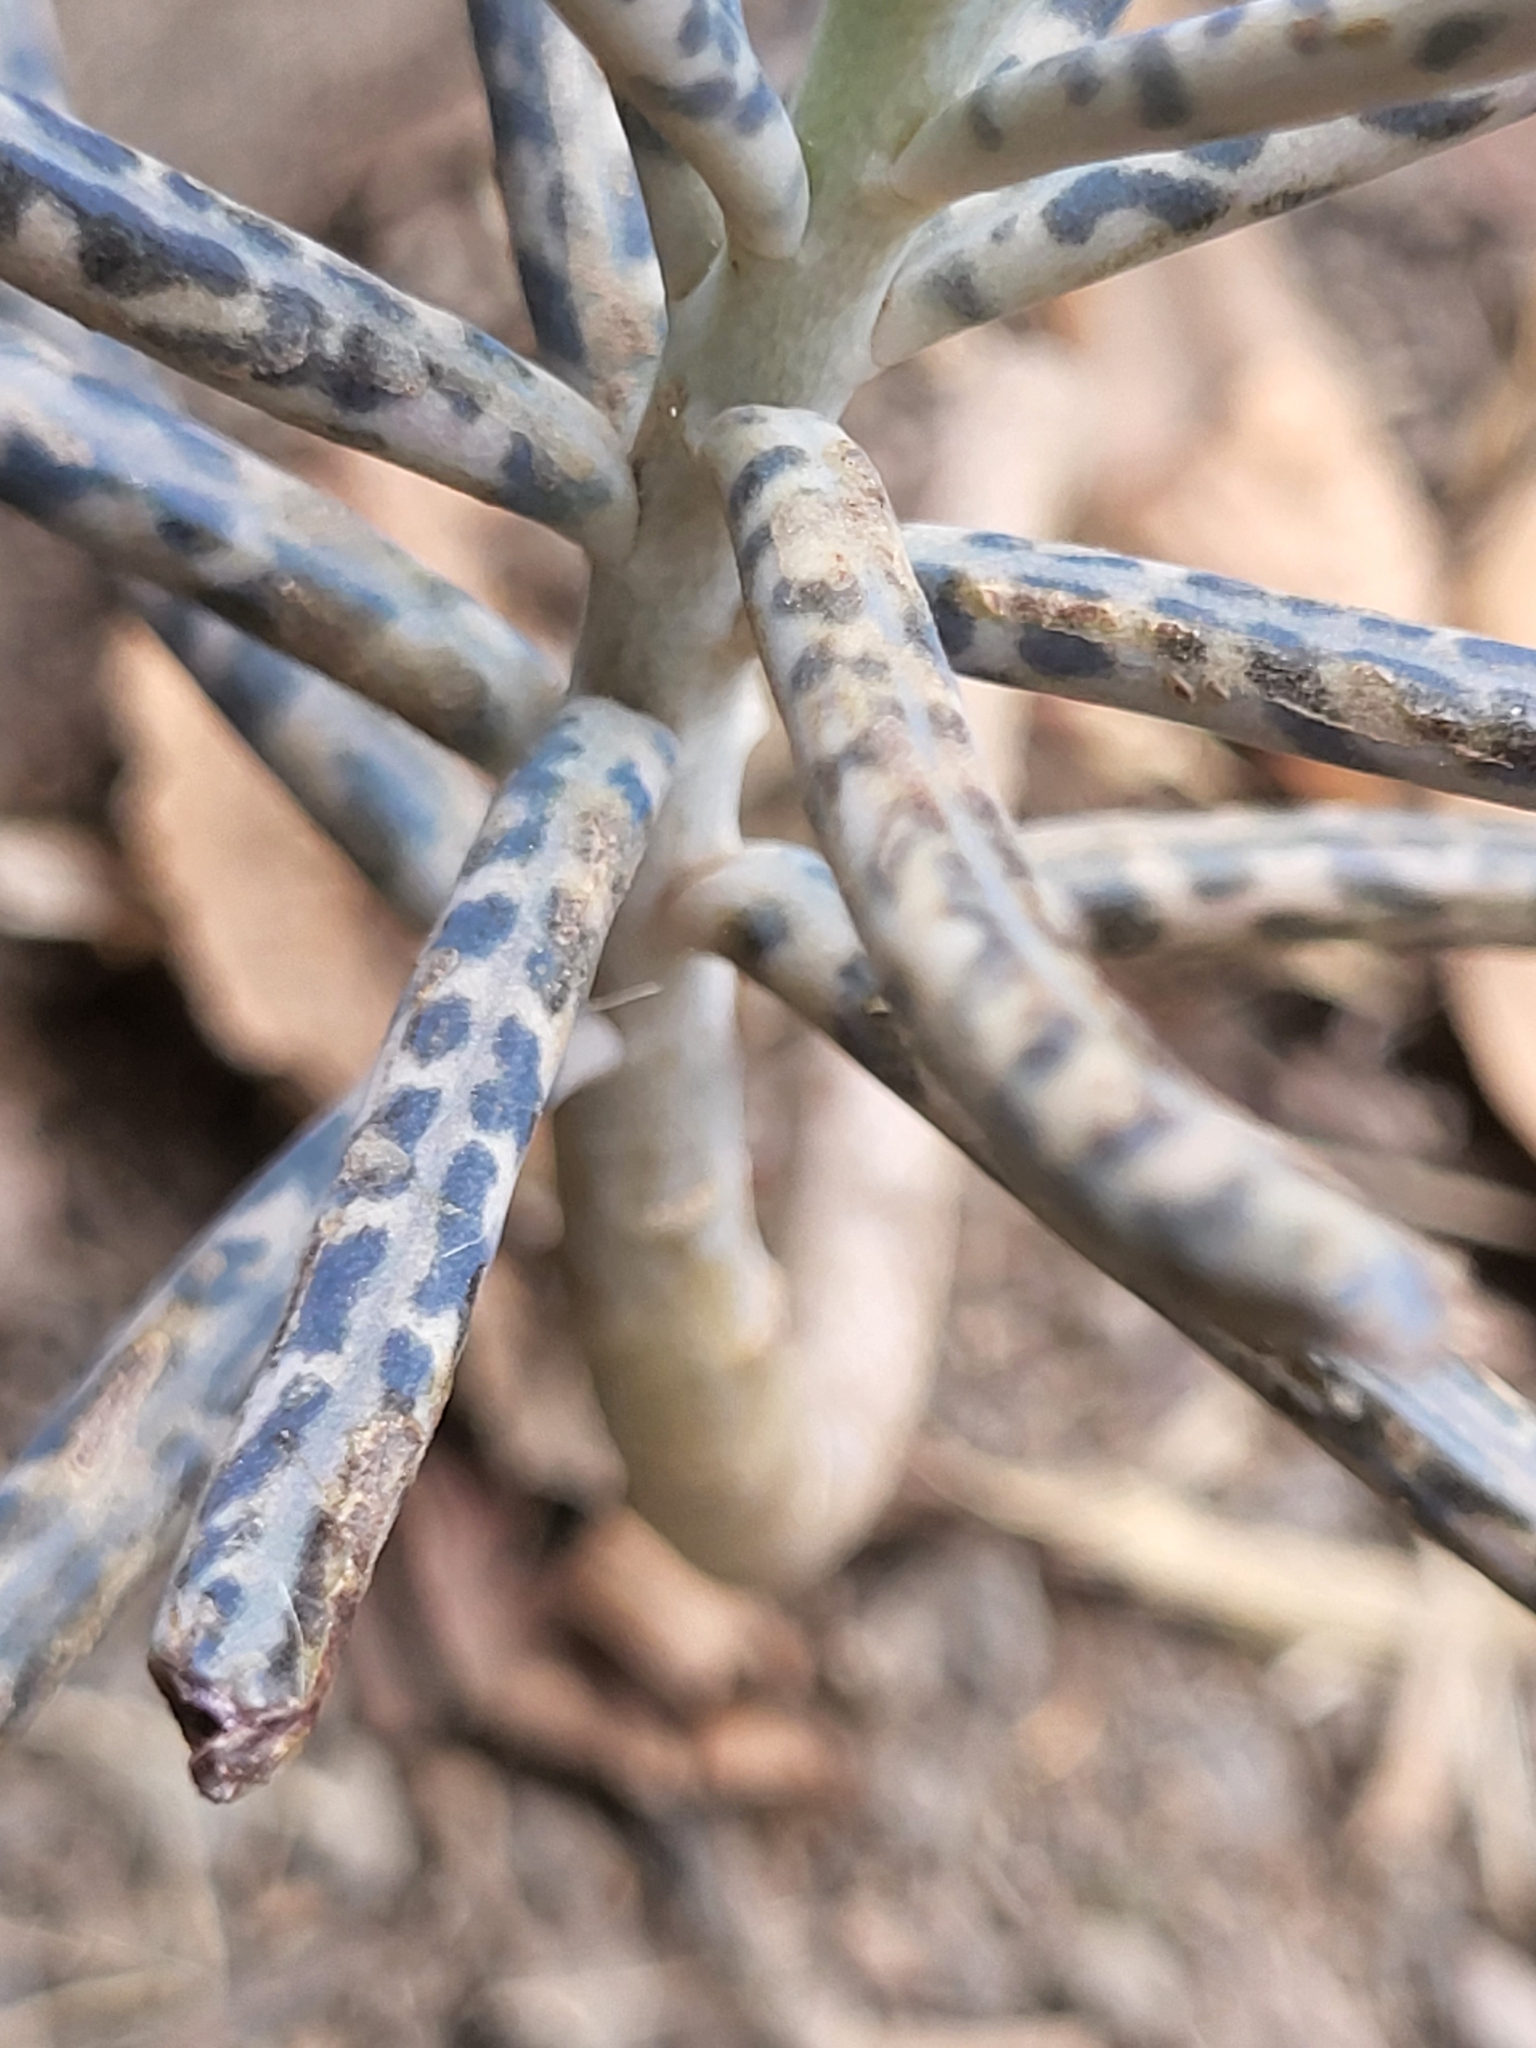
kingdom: Plantae
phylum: Tracheophyta
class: Magnoliopsida
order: Saxifragales
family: Crassulaceae
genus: Kalanchoe
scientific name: Kalanchoe delagoensis
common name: Chandelier plant
